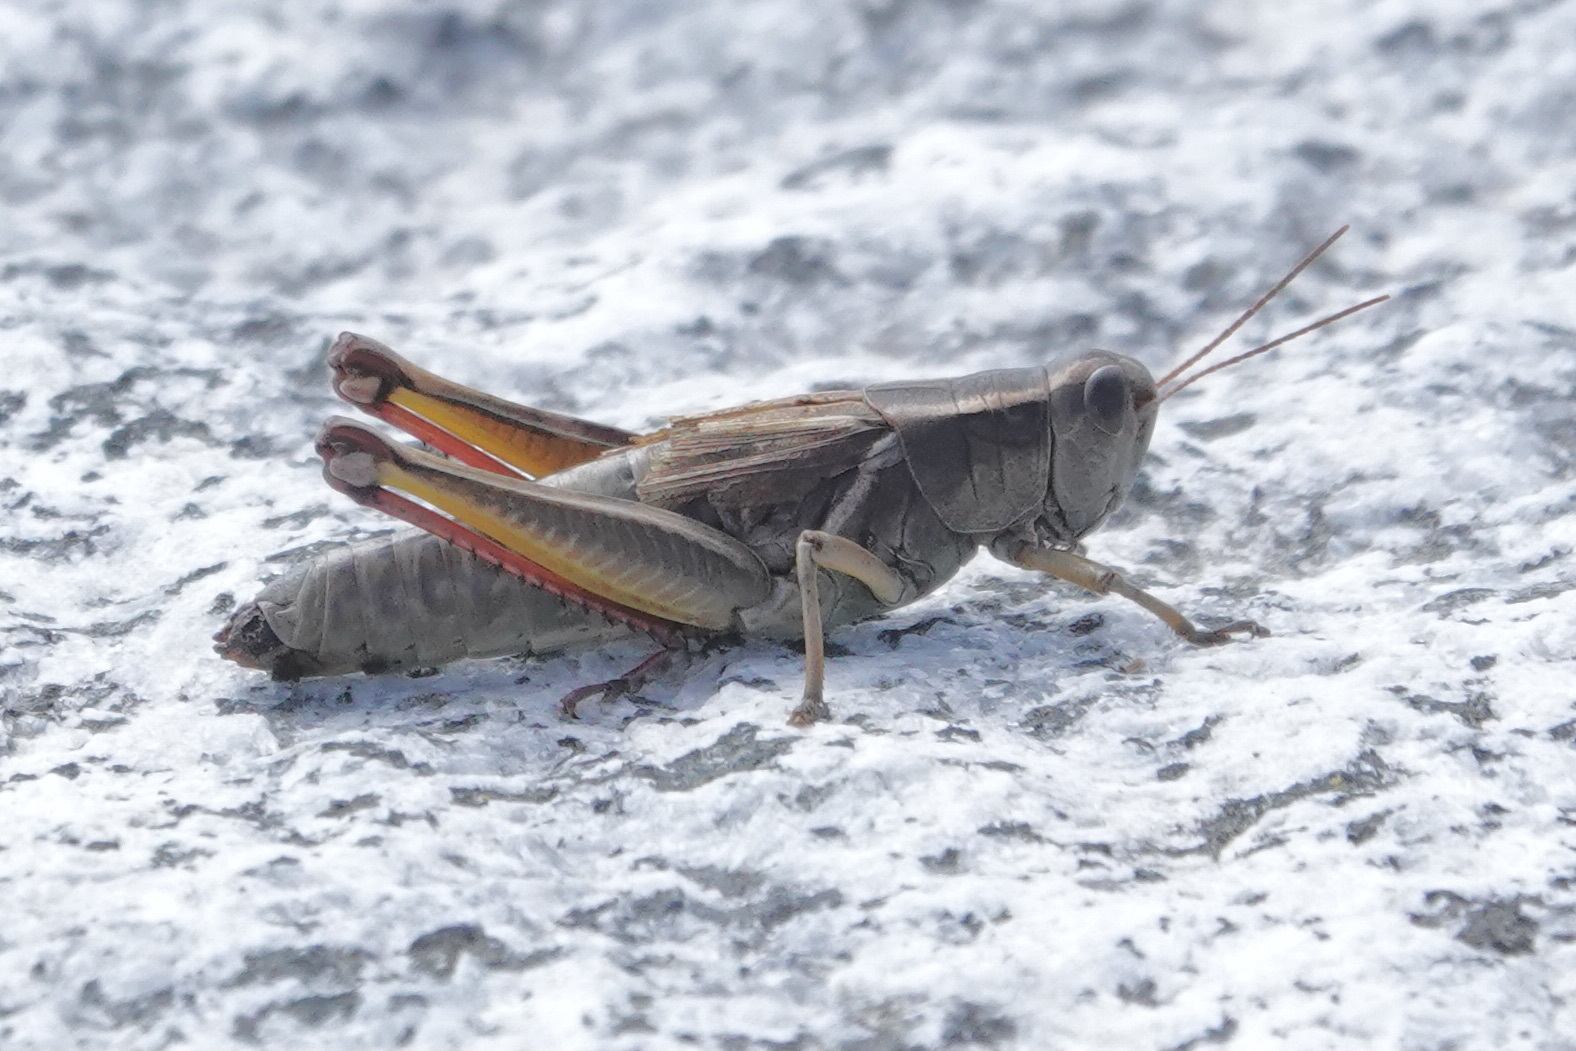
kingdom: Animalia
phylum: Arthropoda
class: Insecta
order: Orthoptera
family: Acrididae
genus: Melanoplus
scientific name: Melanoplus bivittatus
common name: Two-striped grasshopper
